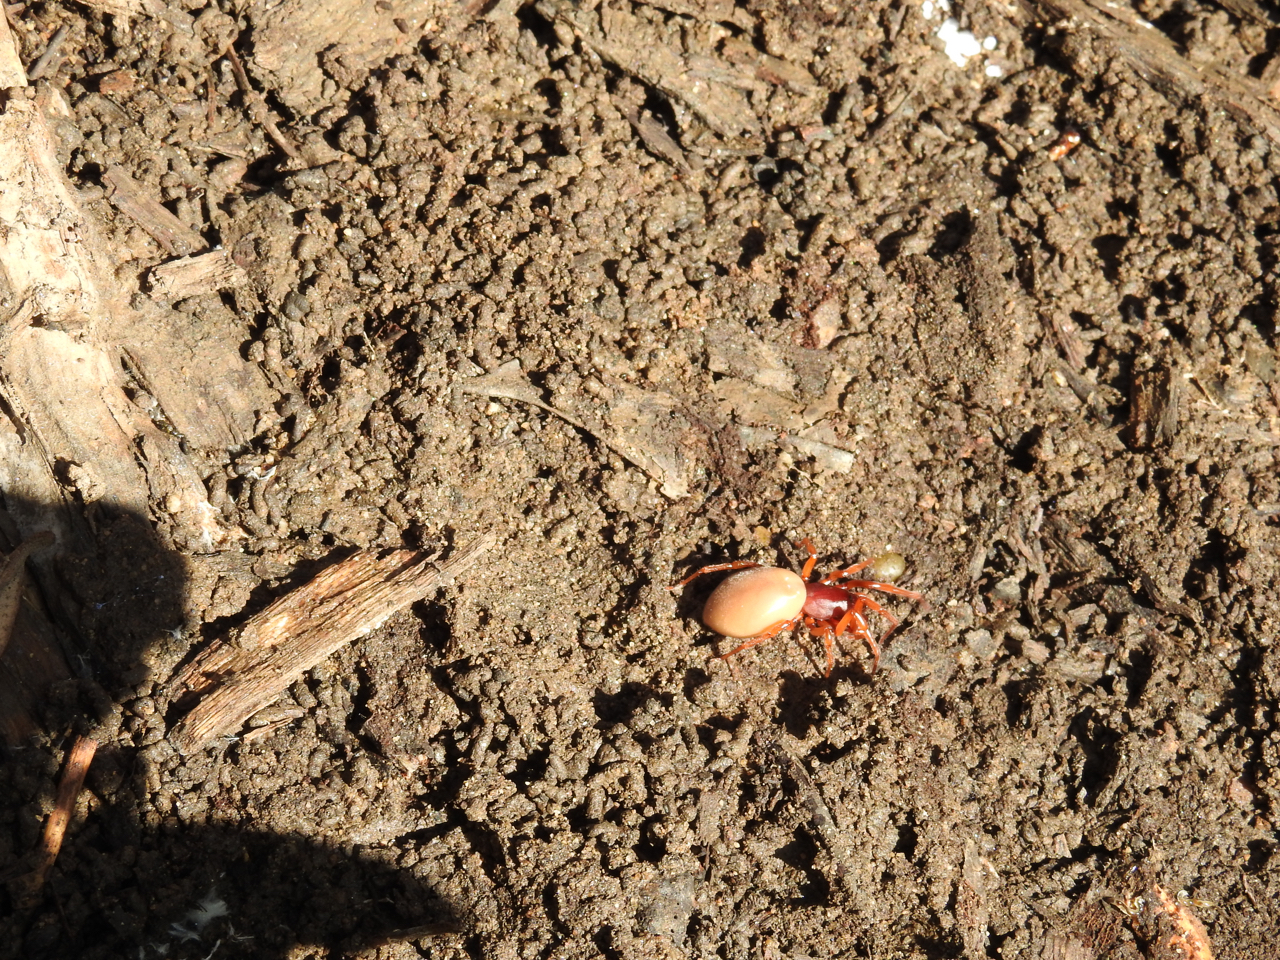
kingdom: Animalia
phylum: Arthropoda
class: Arachnida
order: Araneae
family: Dysderidae
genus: Dysdera
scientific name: Dysdera crocata
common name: Woodlouse spider
